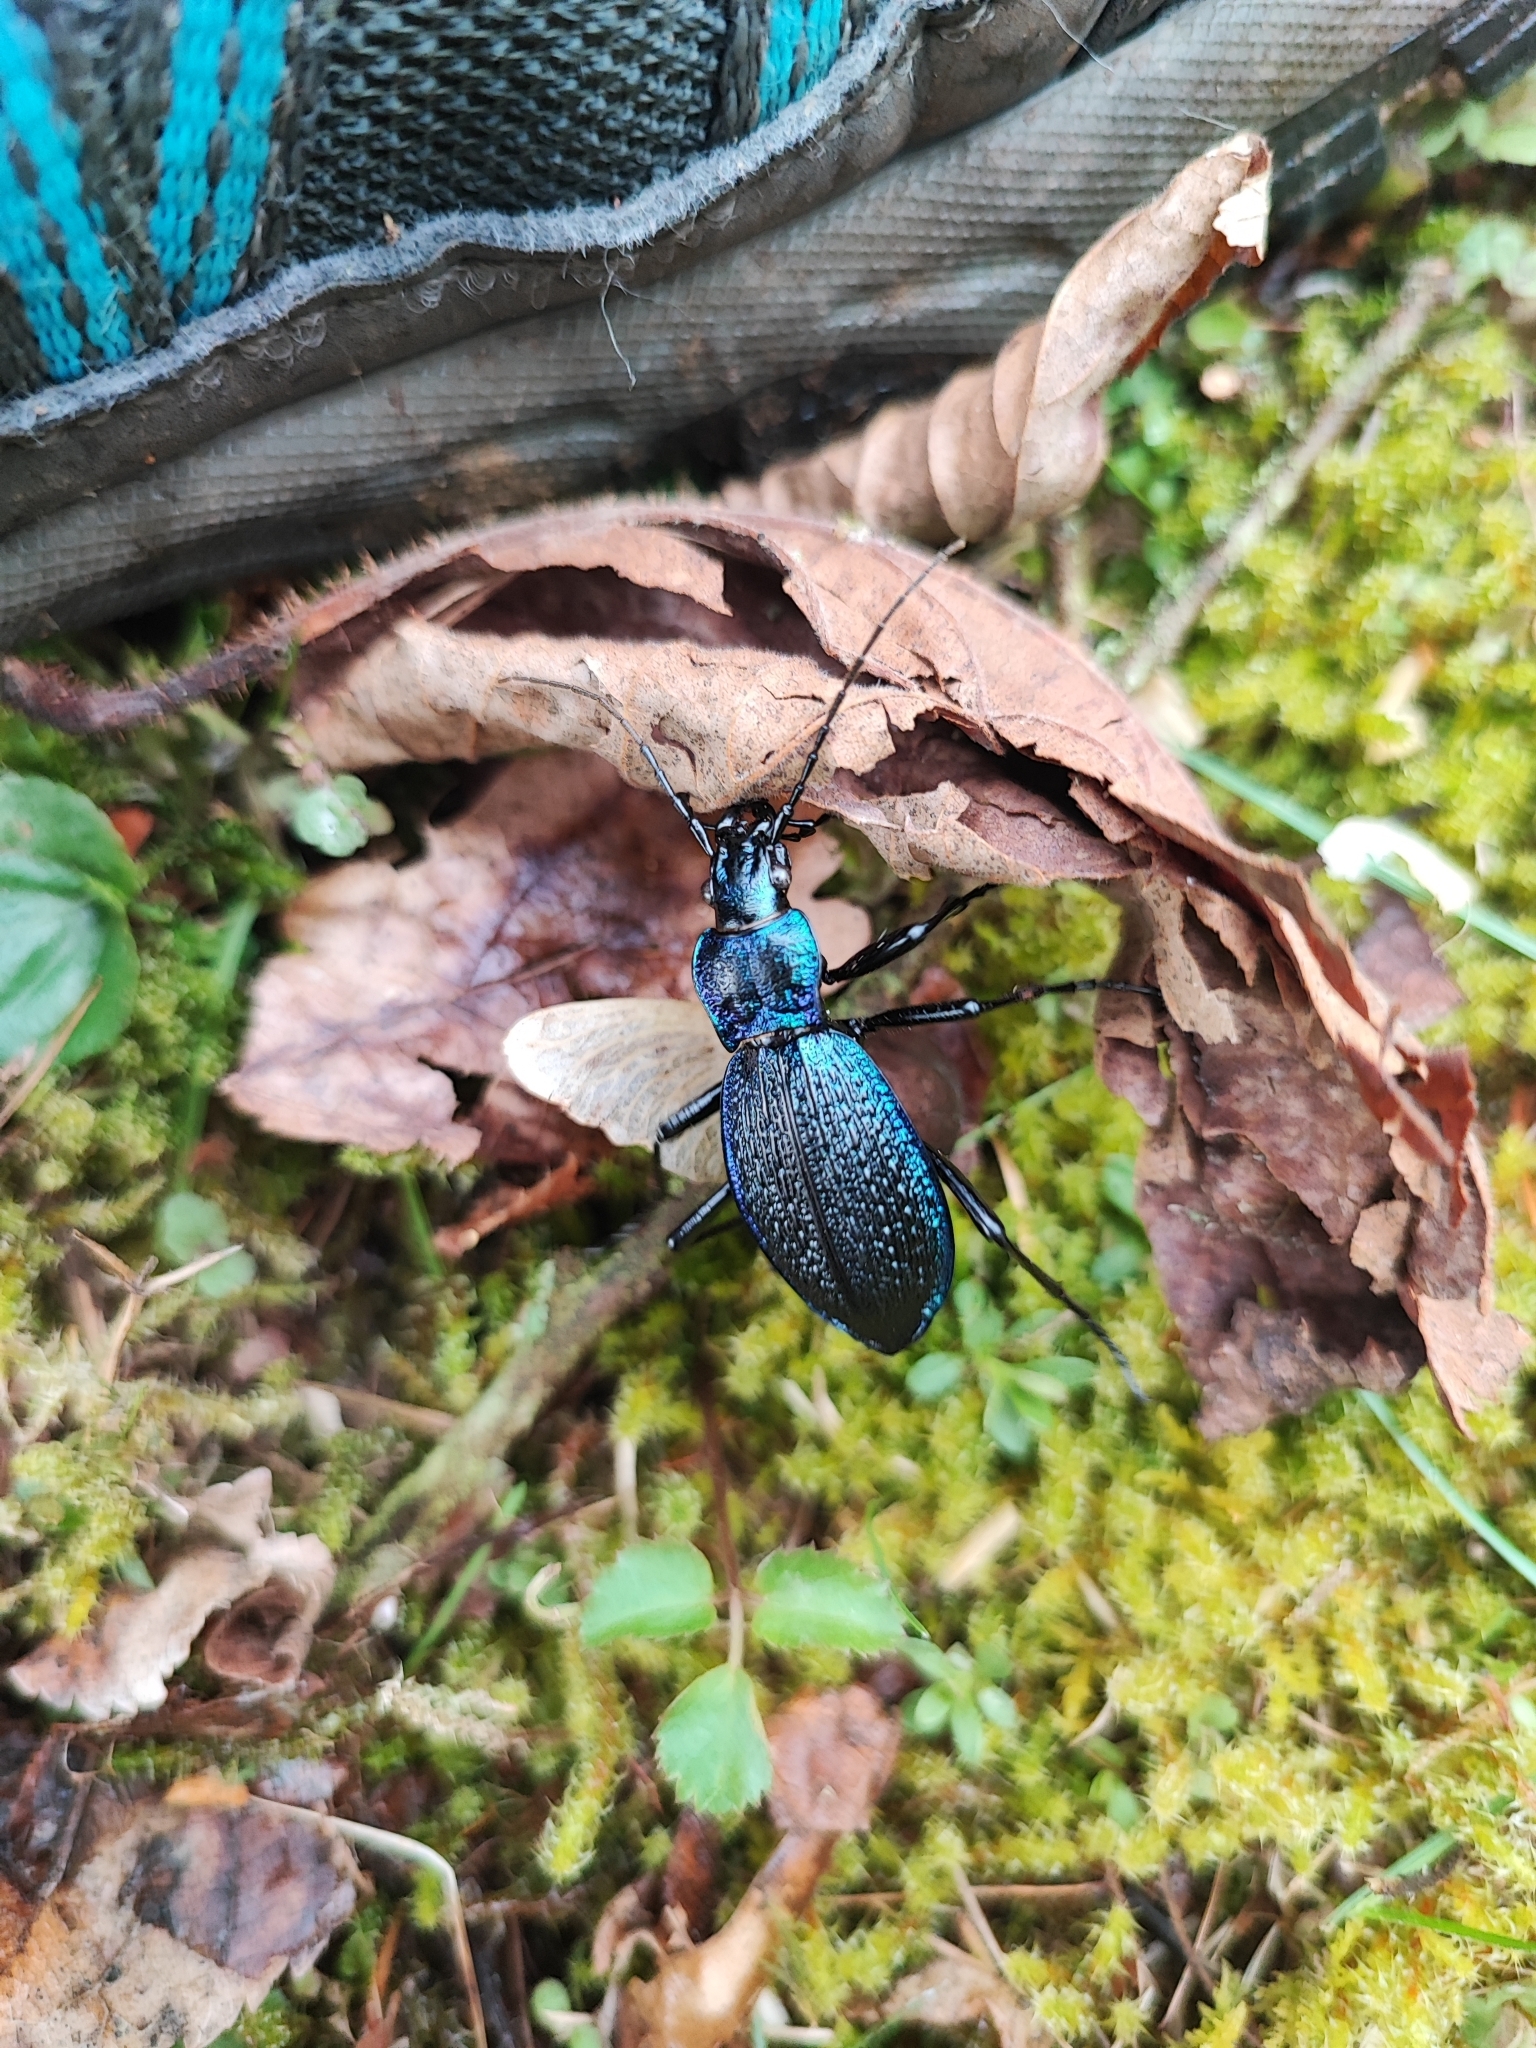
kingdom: Animalia
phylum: Arthropoda
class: Insecta
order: Coleoptera
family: Carabidae
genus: Carabus
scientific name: Carabus intricatus
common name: Blue ground beetle
